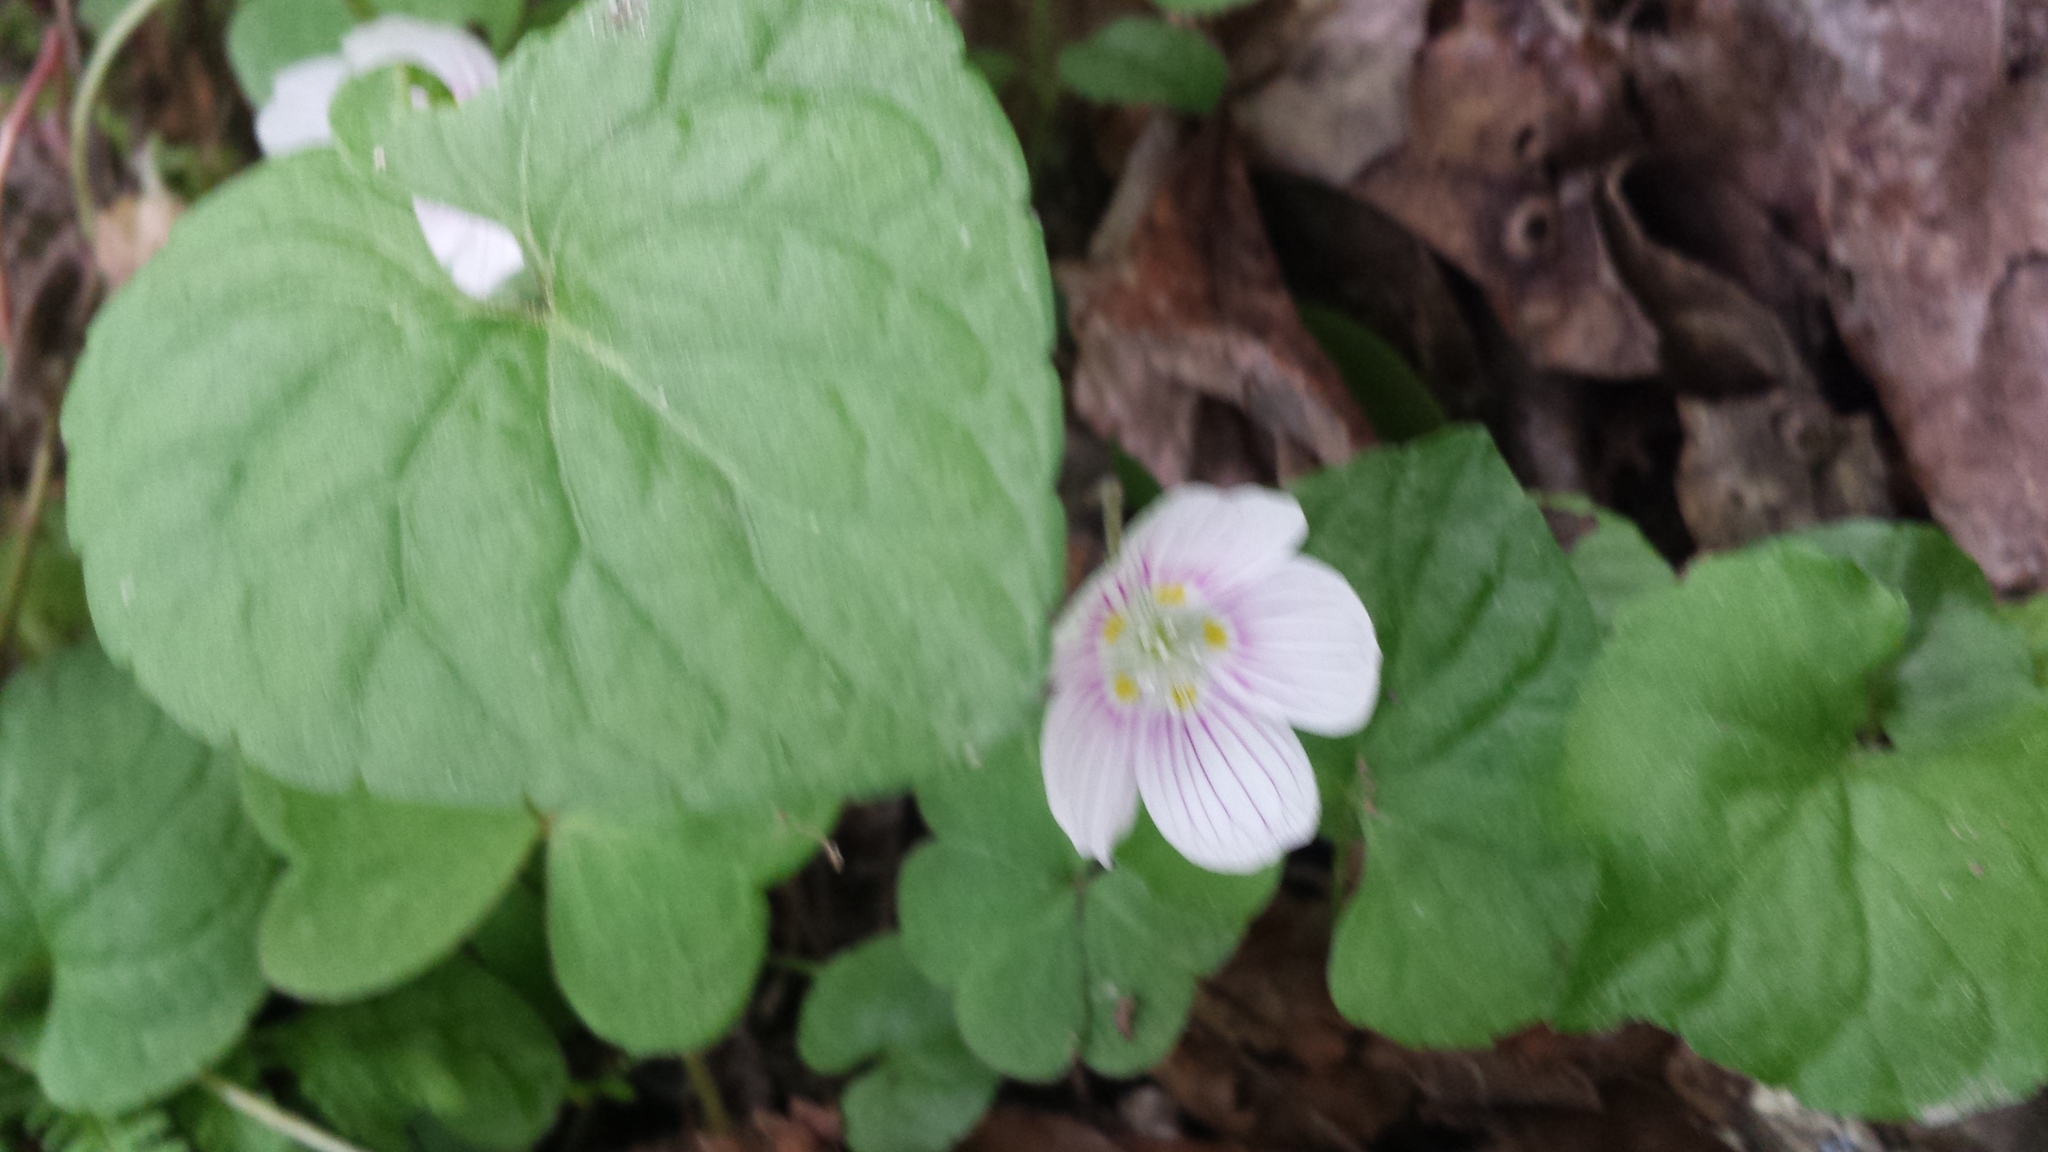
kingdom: Plantae
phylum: Tracheophyta
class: Magnoliopsida
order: Oxalidales
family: Oxalidaceae
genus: Oxalis
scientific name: Oxalis montana
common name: American wood-sorrel
